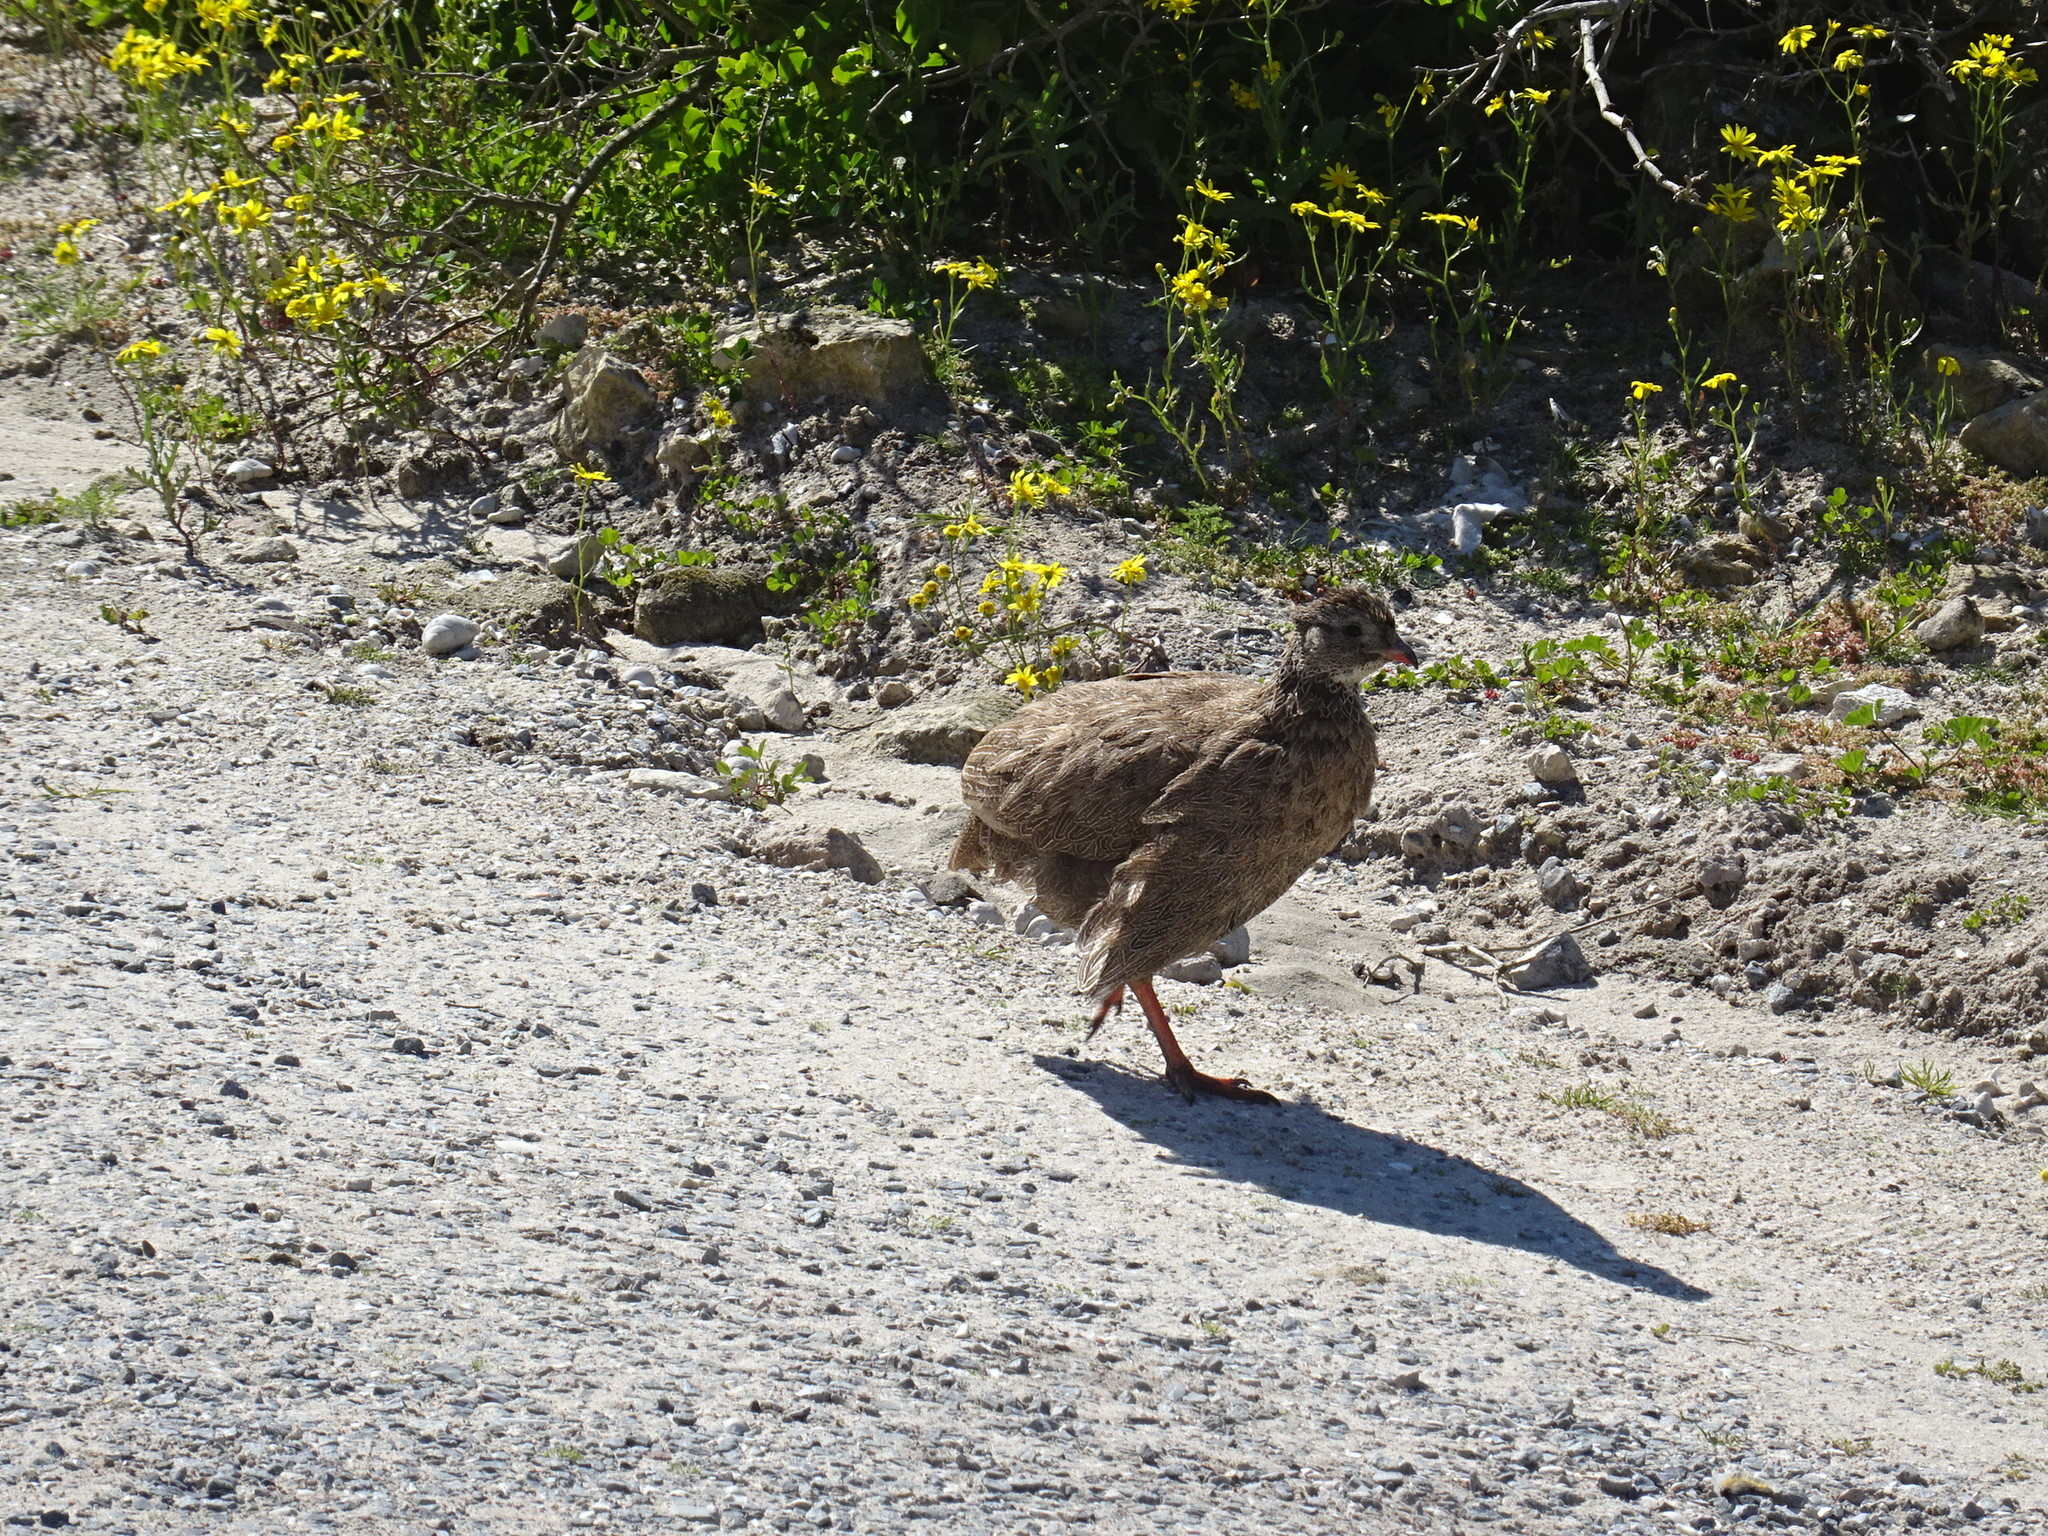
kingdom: Animalia
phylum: Chordata
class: Aves
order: Galliformes
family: Phasianidae
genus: Pternistis
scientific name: Pternistis capensis
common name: Cape spurfowl
